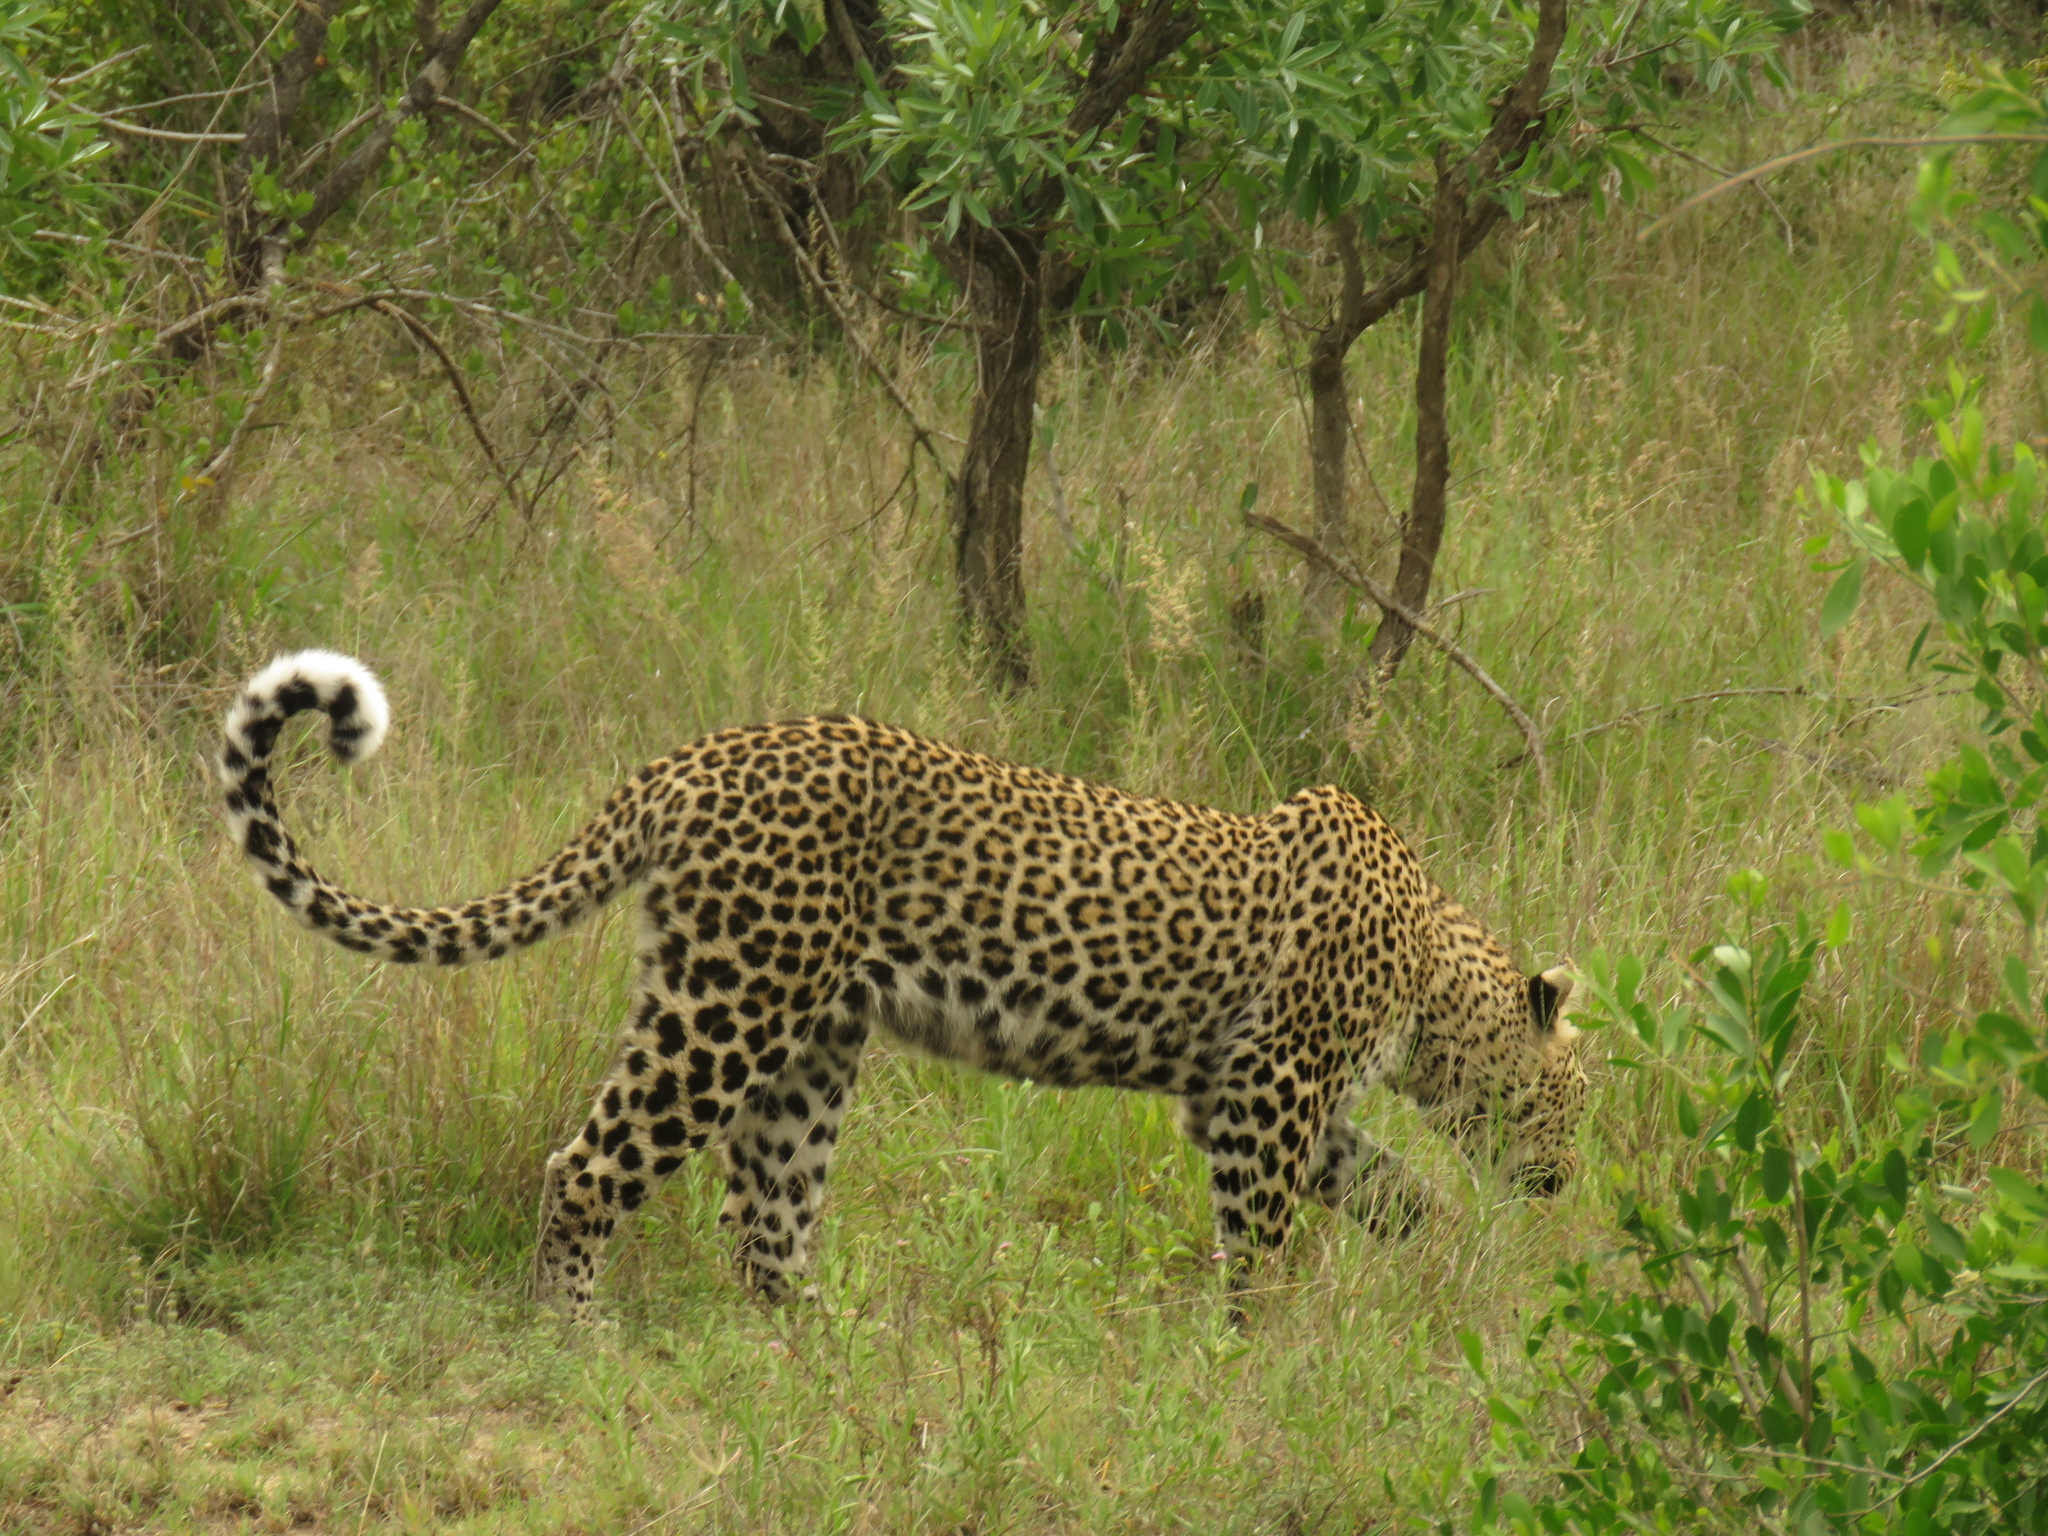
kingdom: Animalia
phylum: Chordata
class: Mammalia
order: Carnivora
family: Felidae
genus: Panthera
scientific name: Panthera pardus
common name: Leopard
